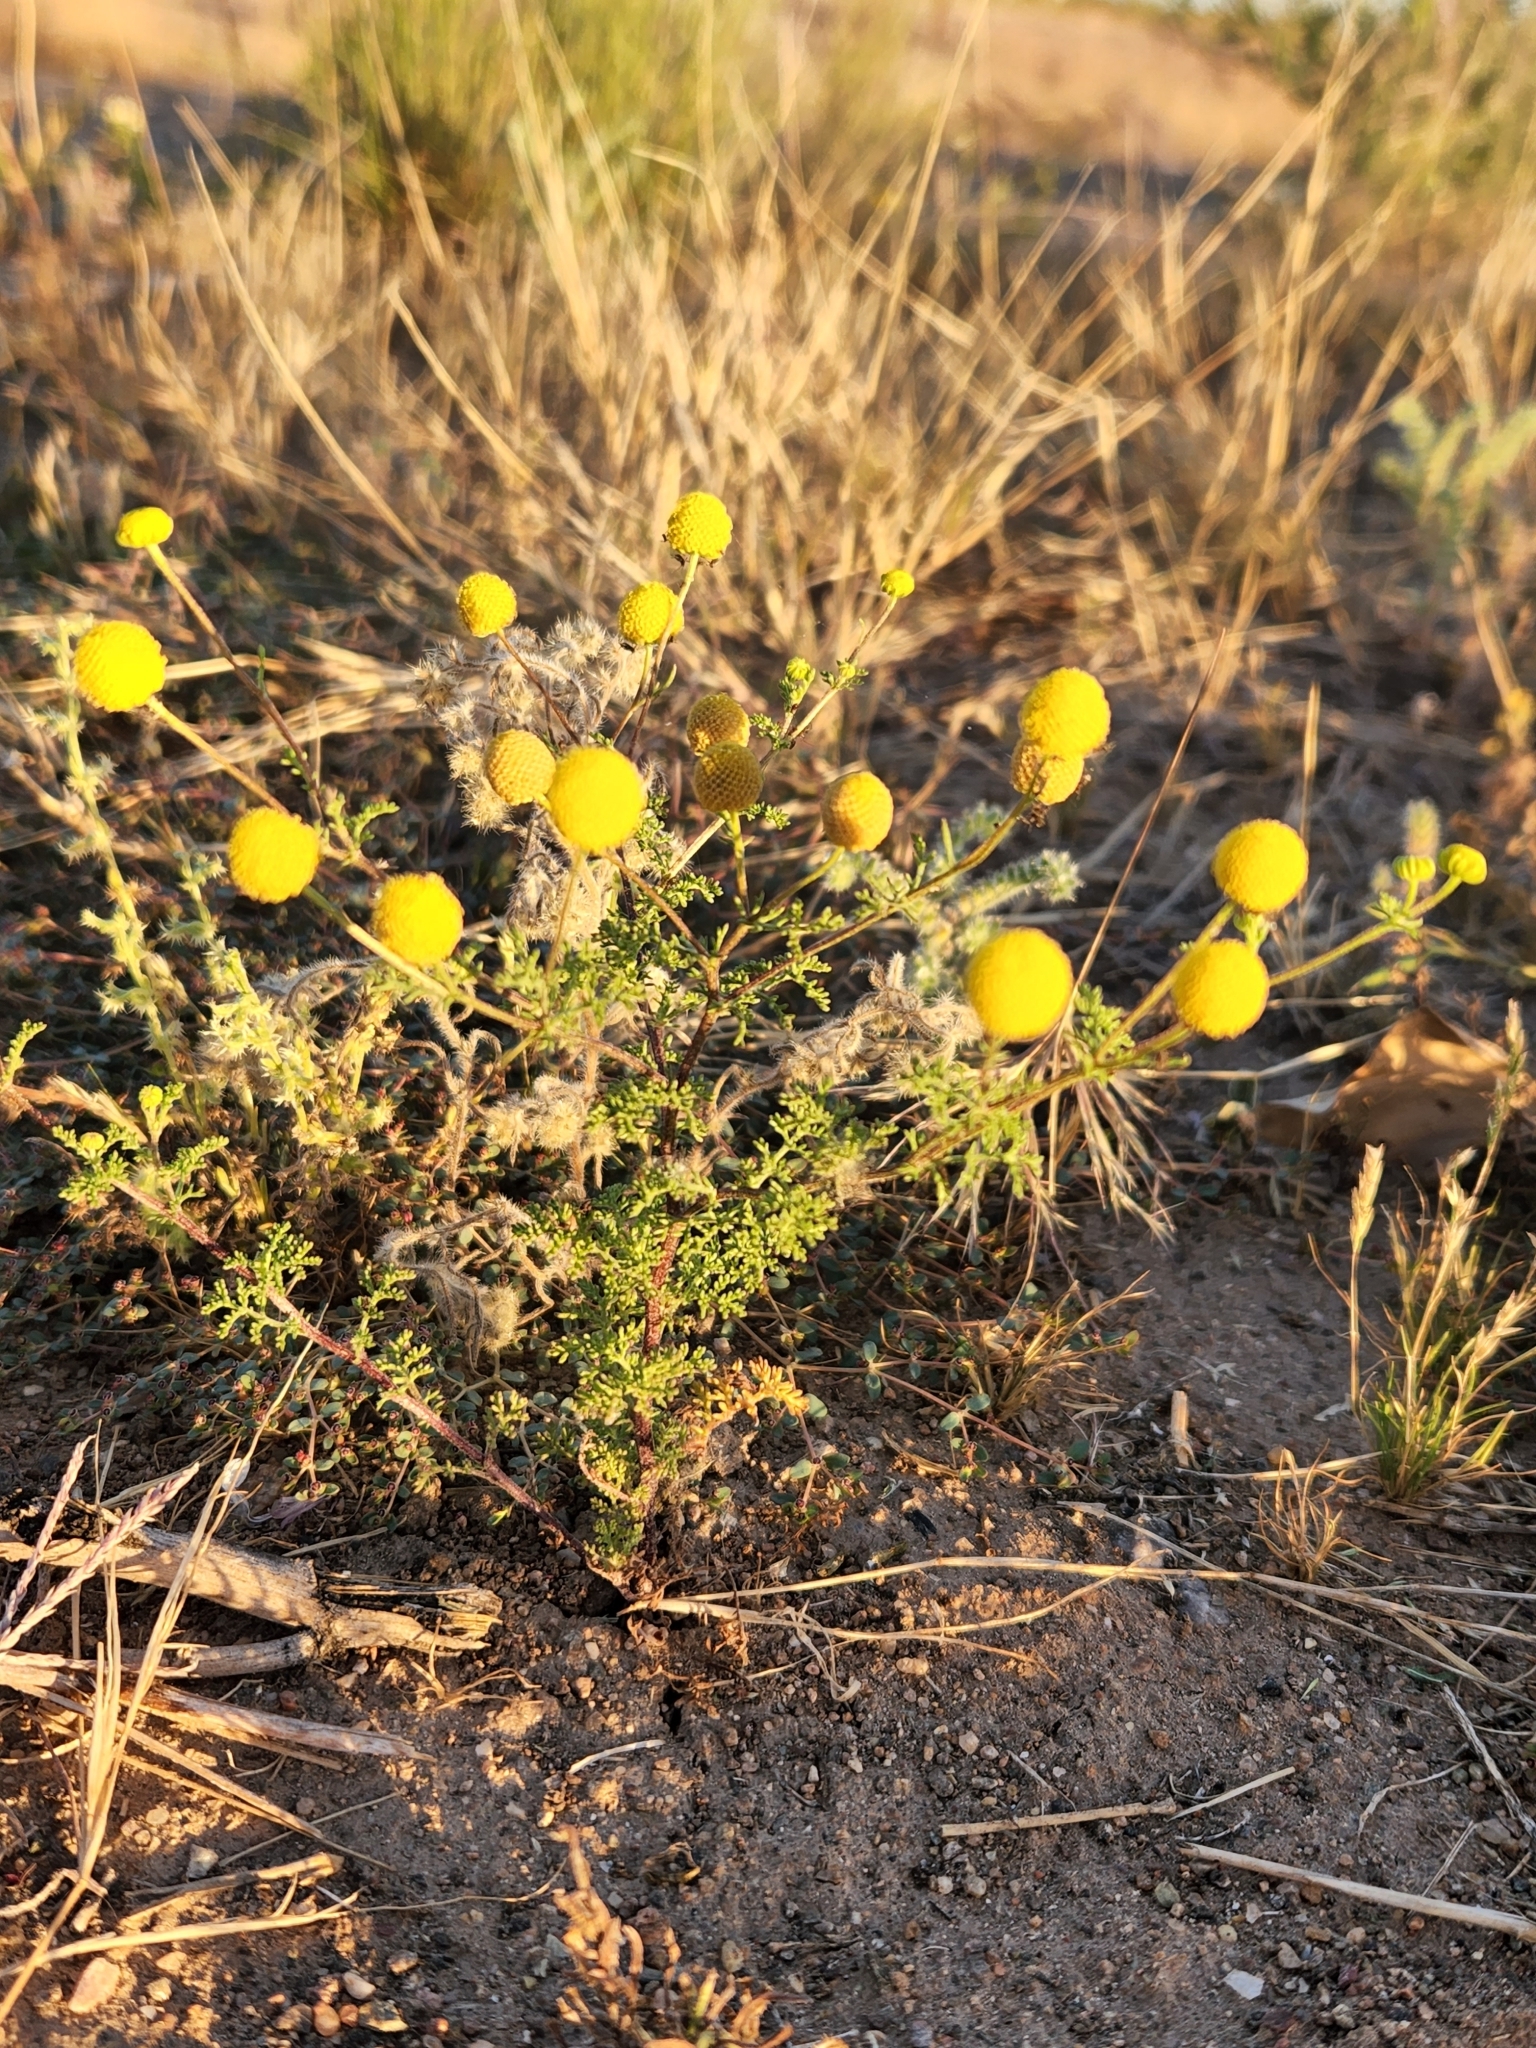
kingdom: Plantae
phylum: Tracheophyta
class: Magnoliopsida
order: Asterales
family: Asteraceae
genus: Oncosiphon
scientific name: Oncosiphon pilulifer
